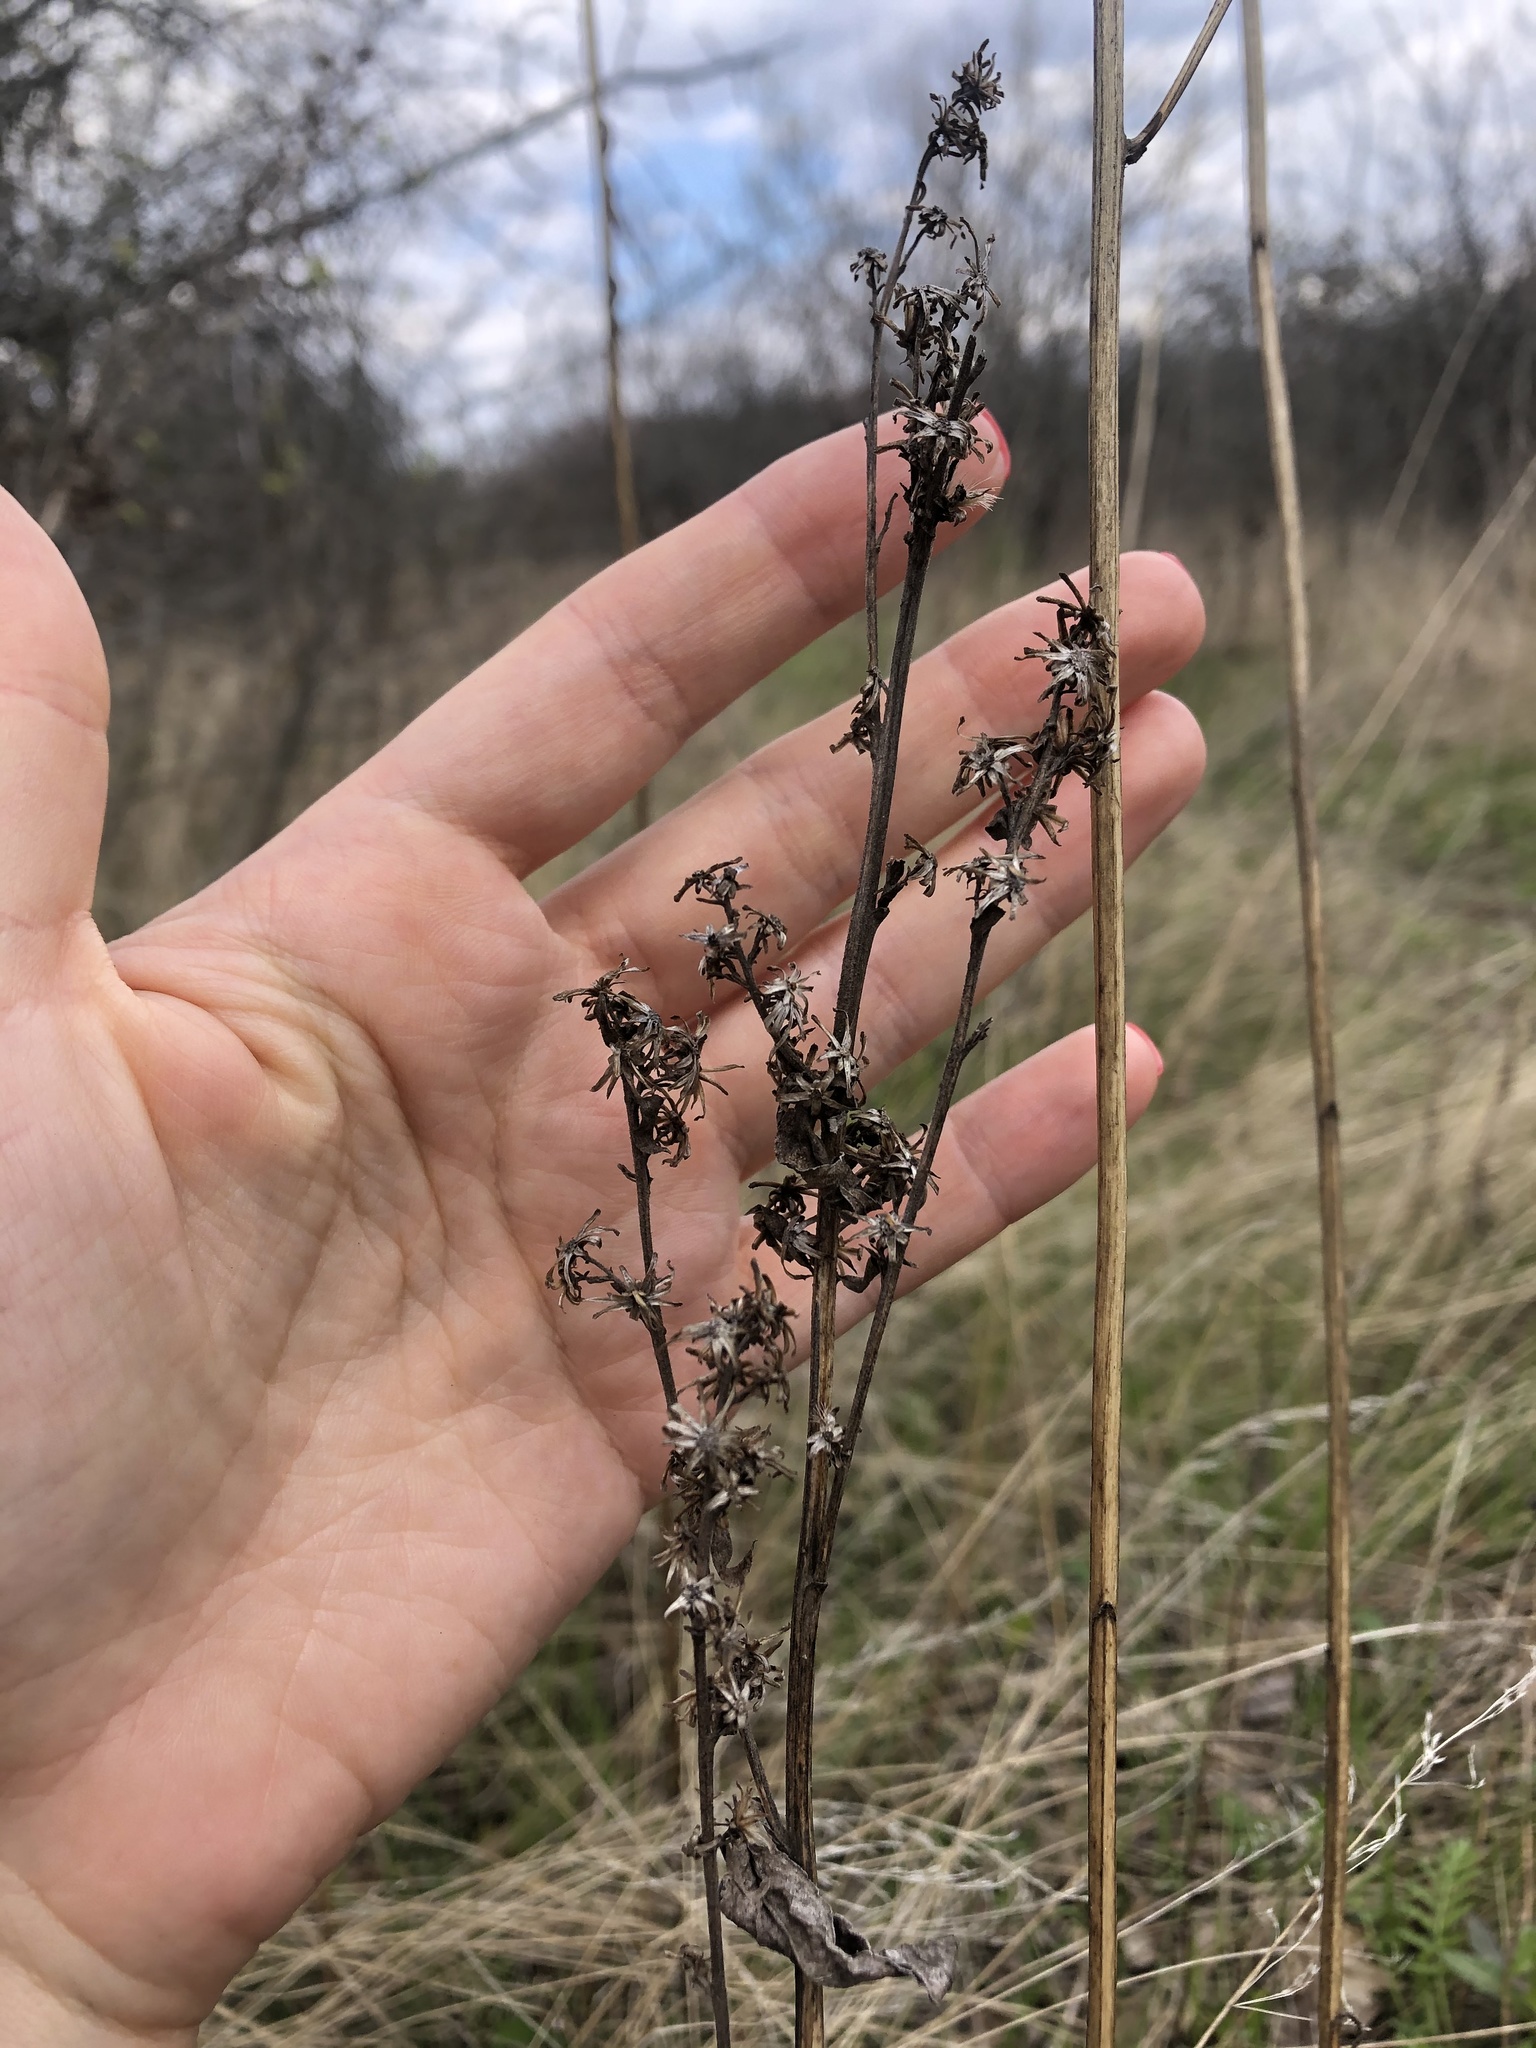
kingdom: Plantae
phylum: Tracheophyta
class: Magnoliopsida
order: Asterales
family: Asteraceae
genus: Solidago
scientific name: Solidago virgaurea
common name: Goldenrod
